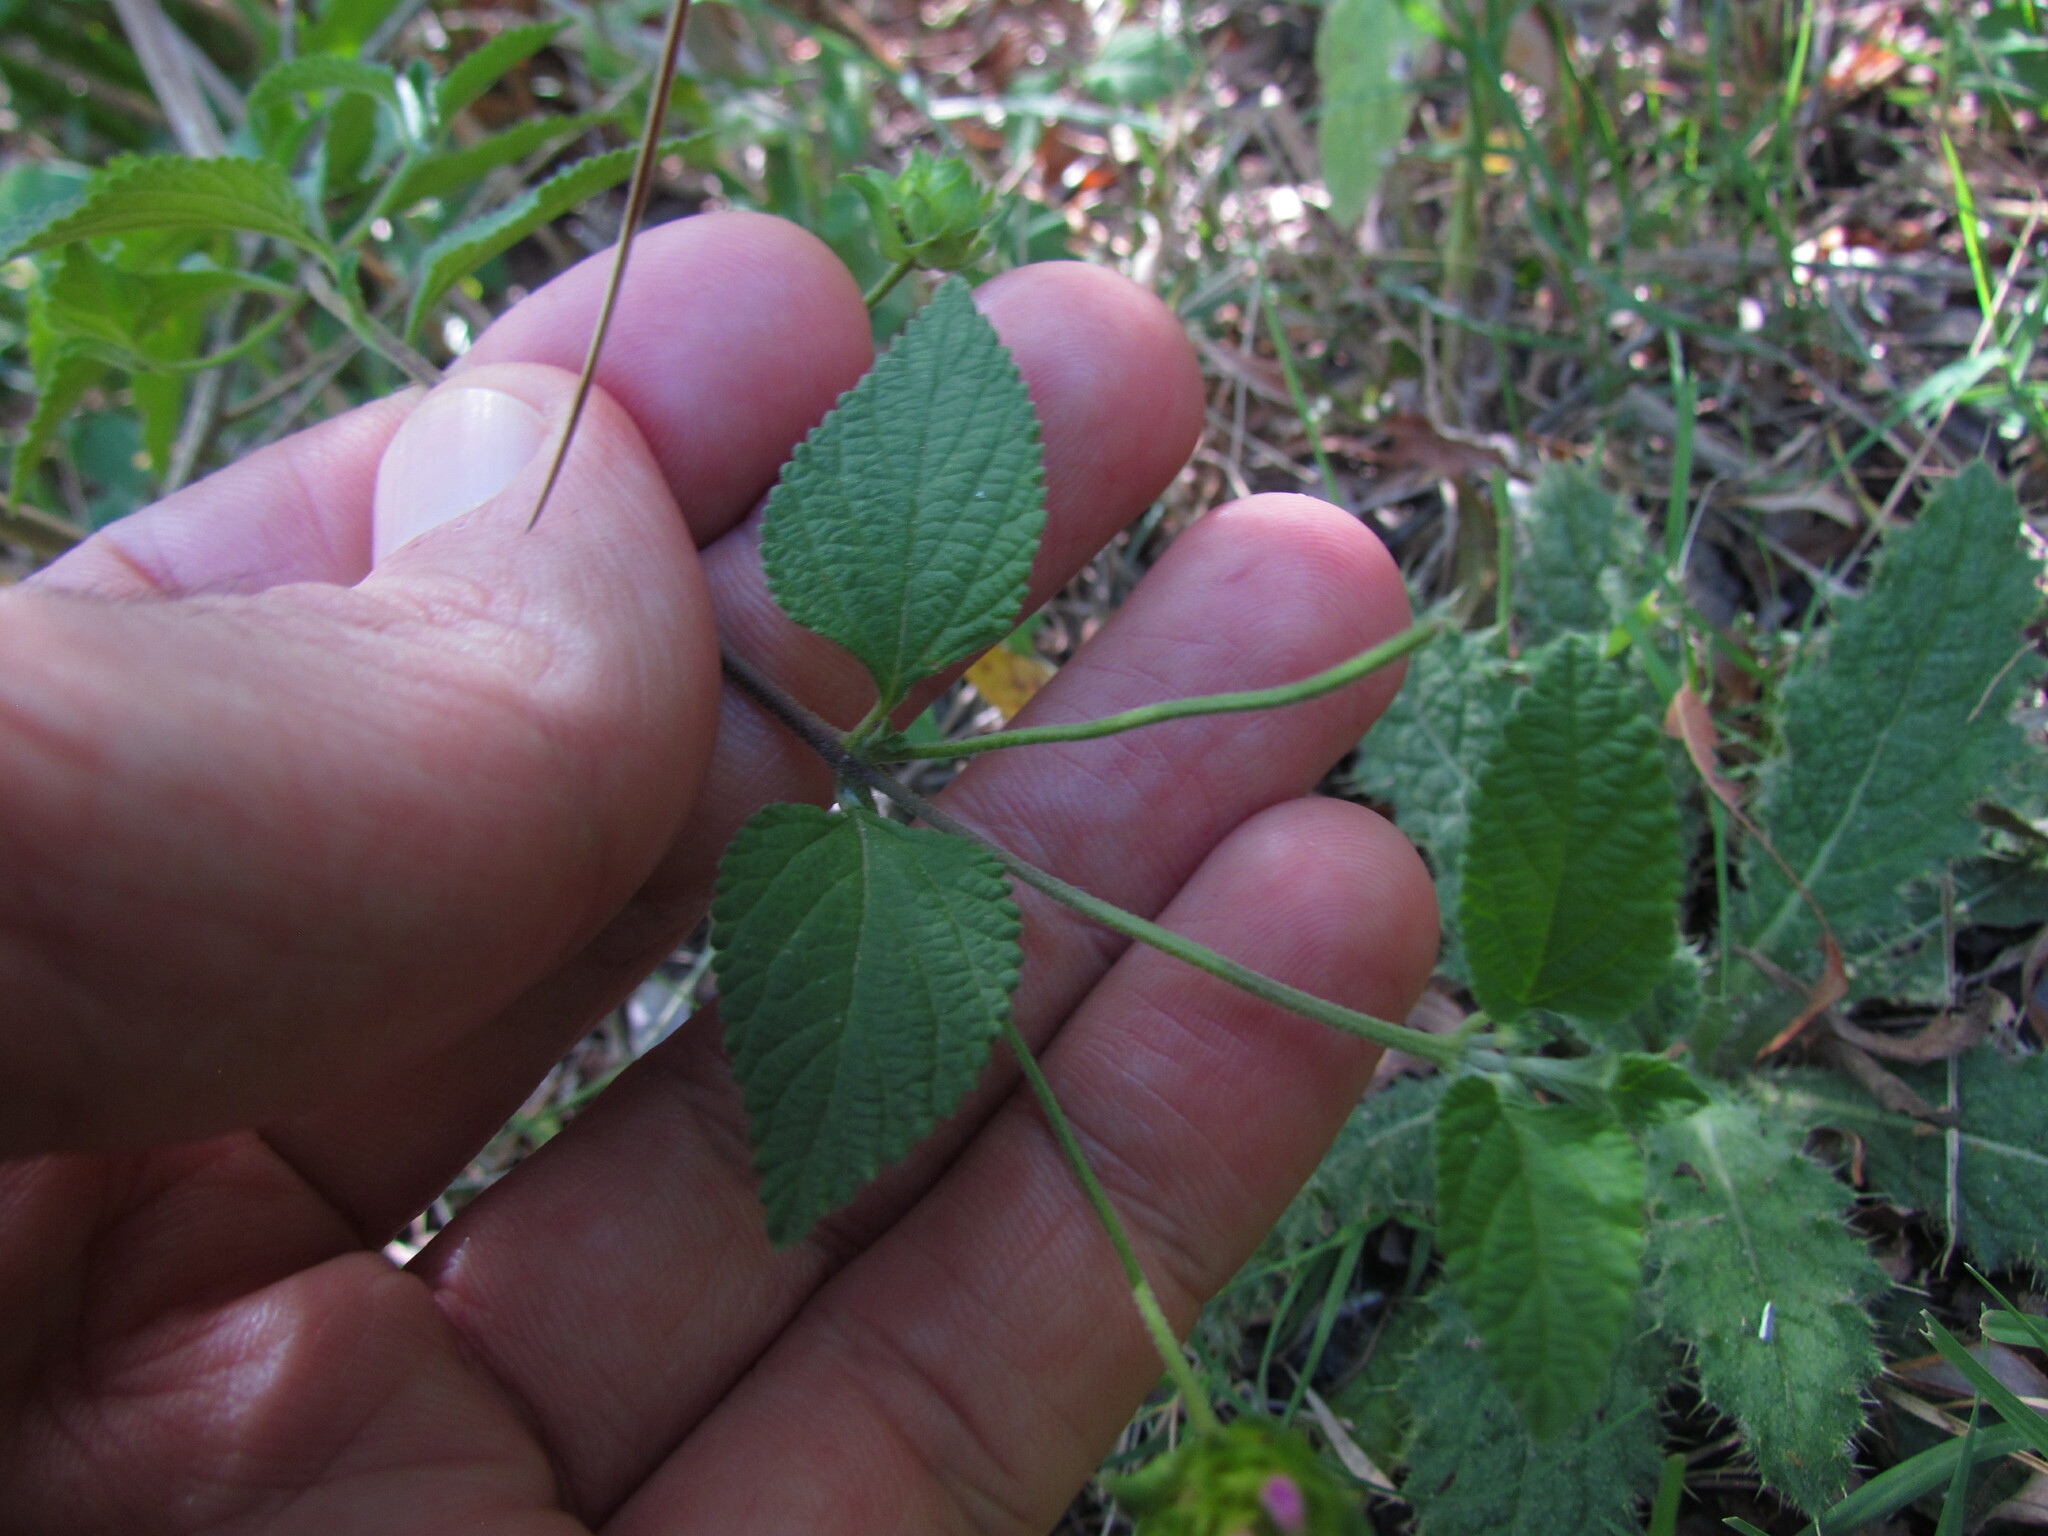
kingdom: Plantae
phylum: Tracheophyta
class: Magnoliopsida
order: Lamiales
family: Verbenaceae
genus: Lantana
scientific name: Lantana montevidensis
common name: Trailing shrubverbena
